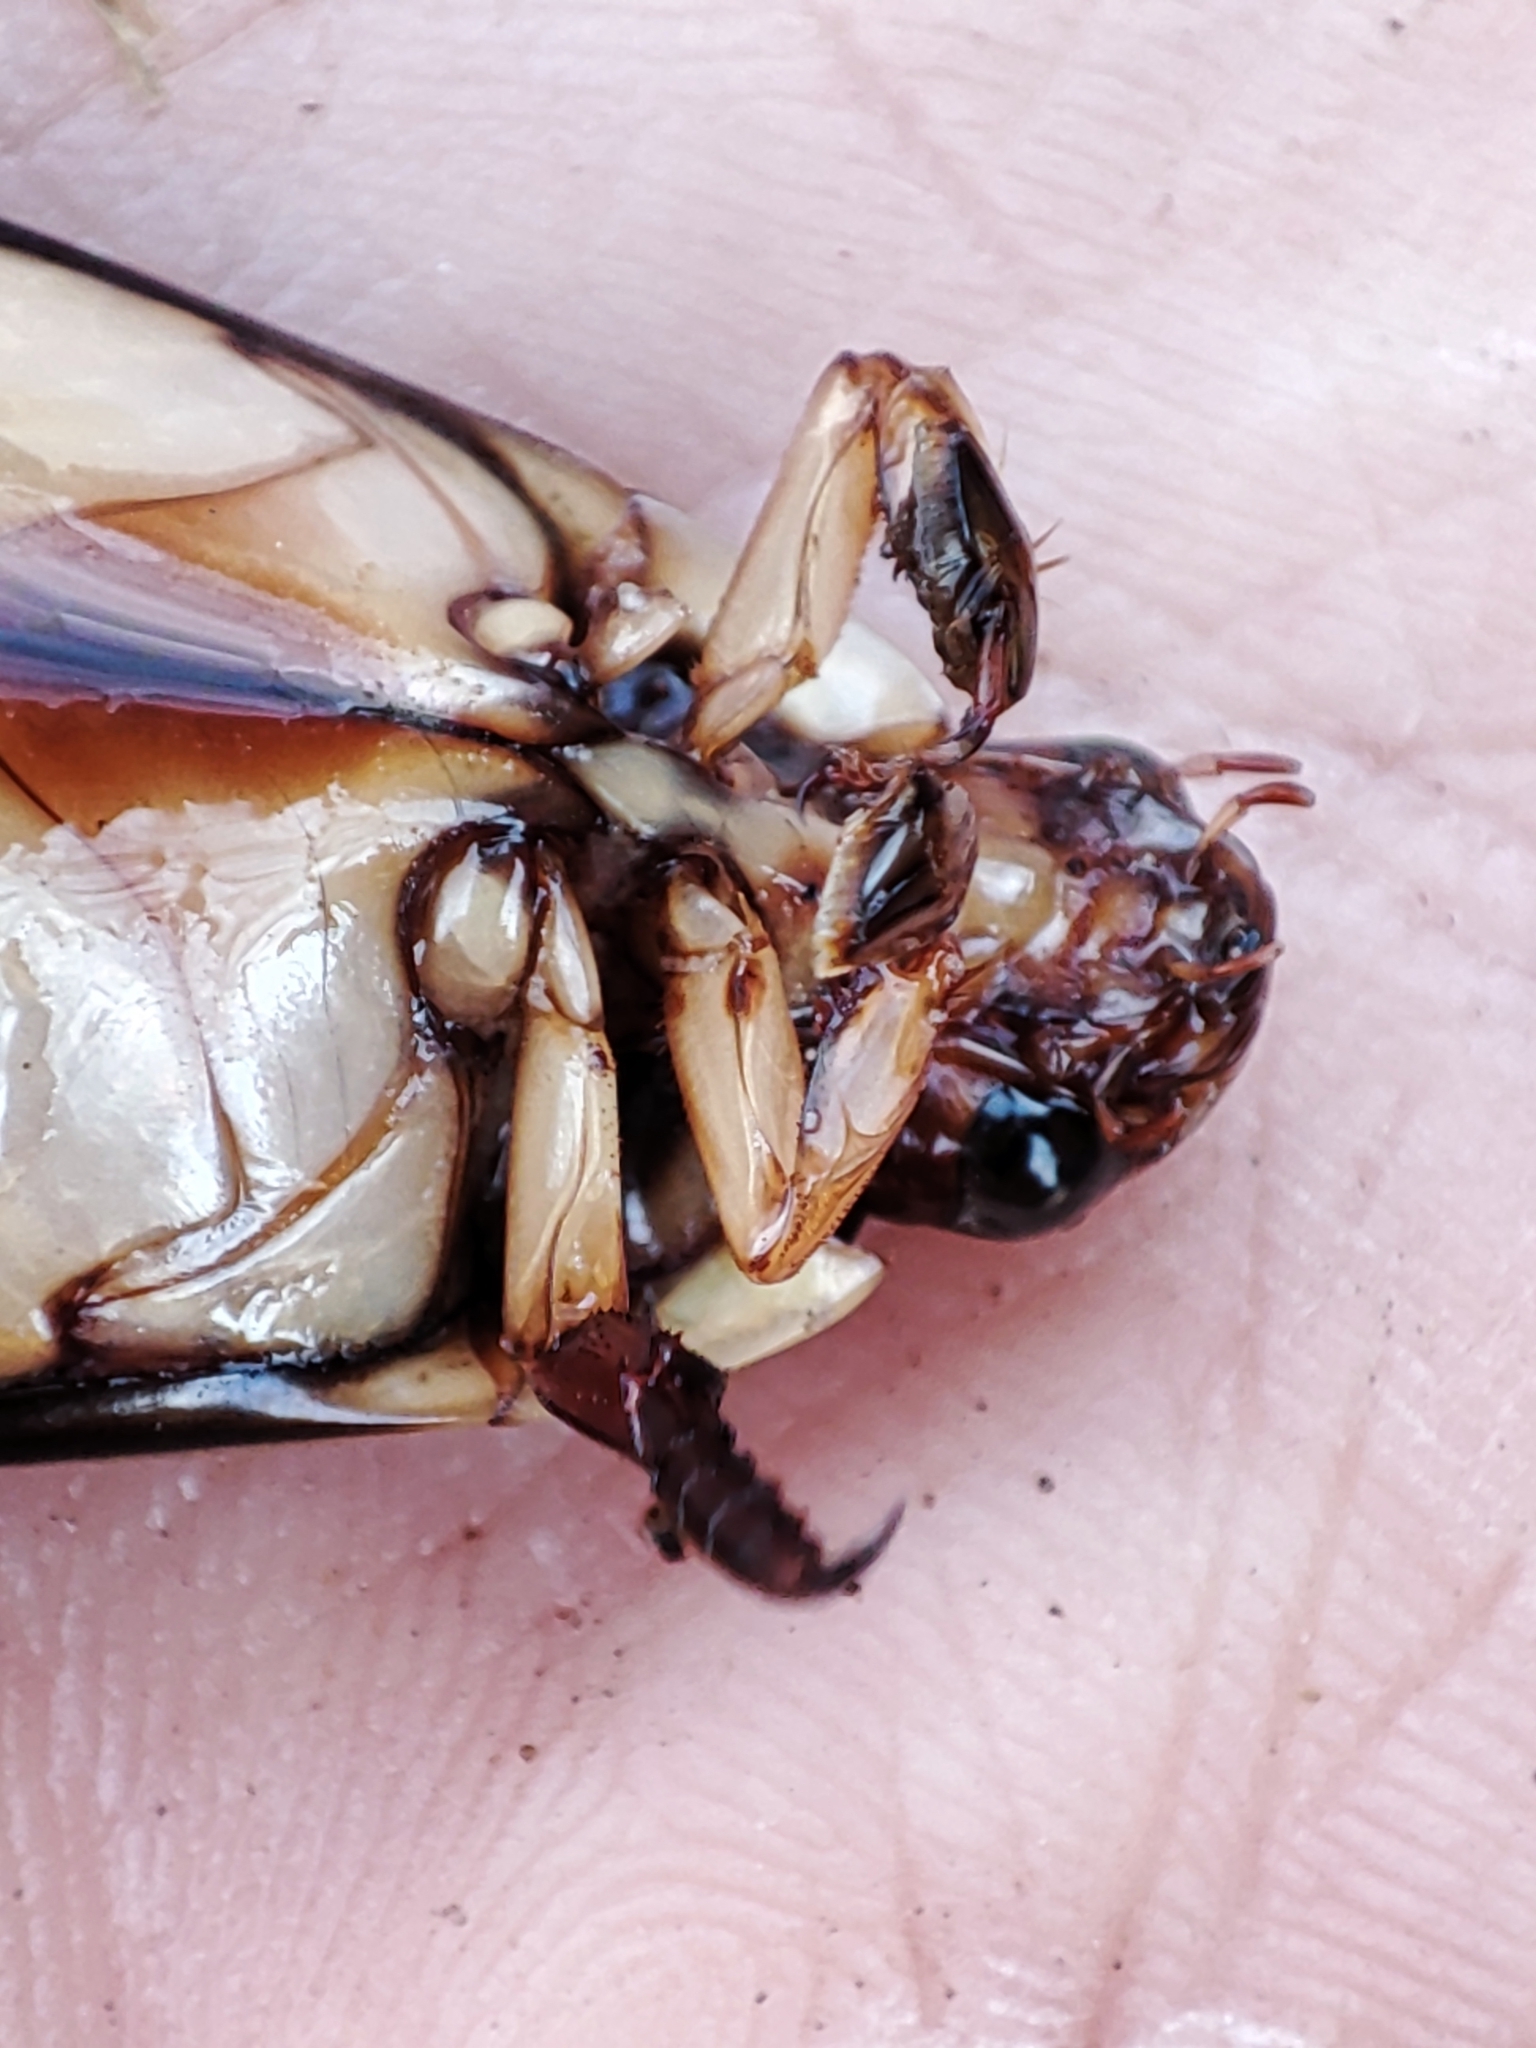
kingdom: Animalia
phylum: Arthropoda
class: Insecta
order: Coleoptera
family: Dytiscidae
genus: Cybister
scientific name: Cybister lateralimarginalis
